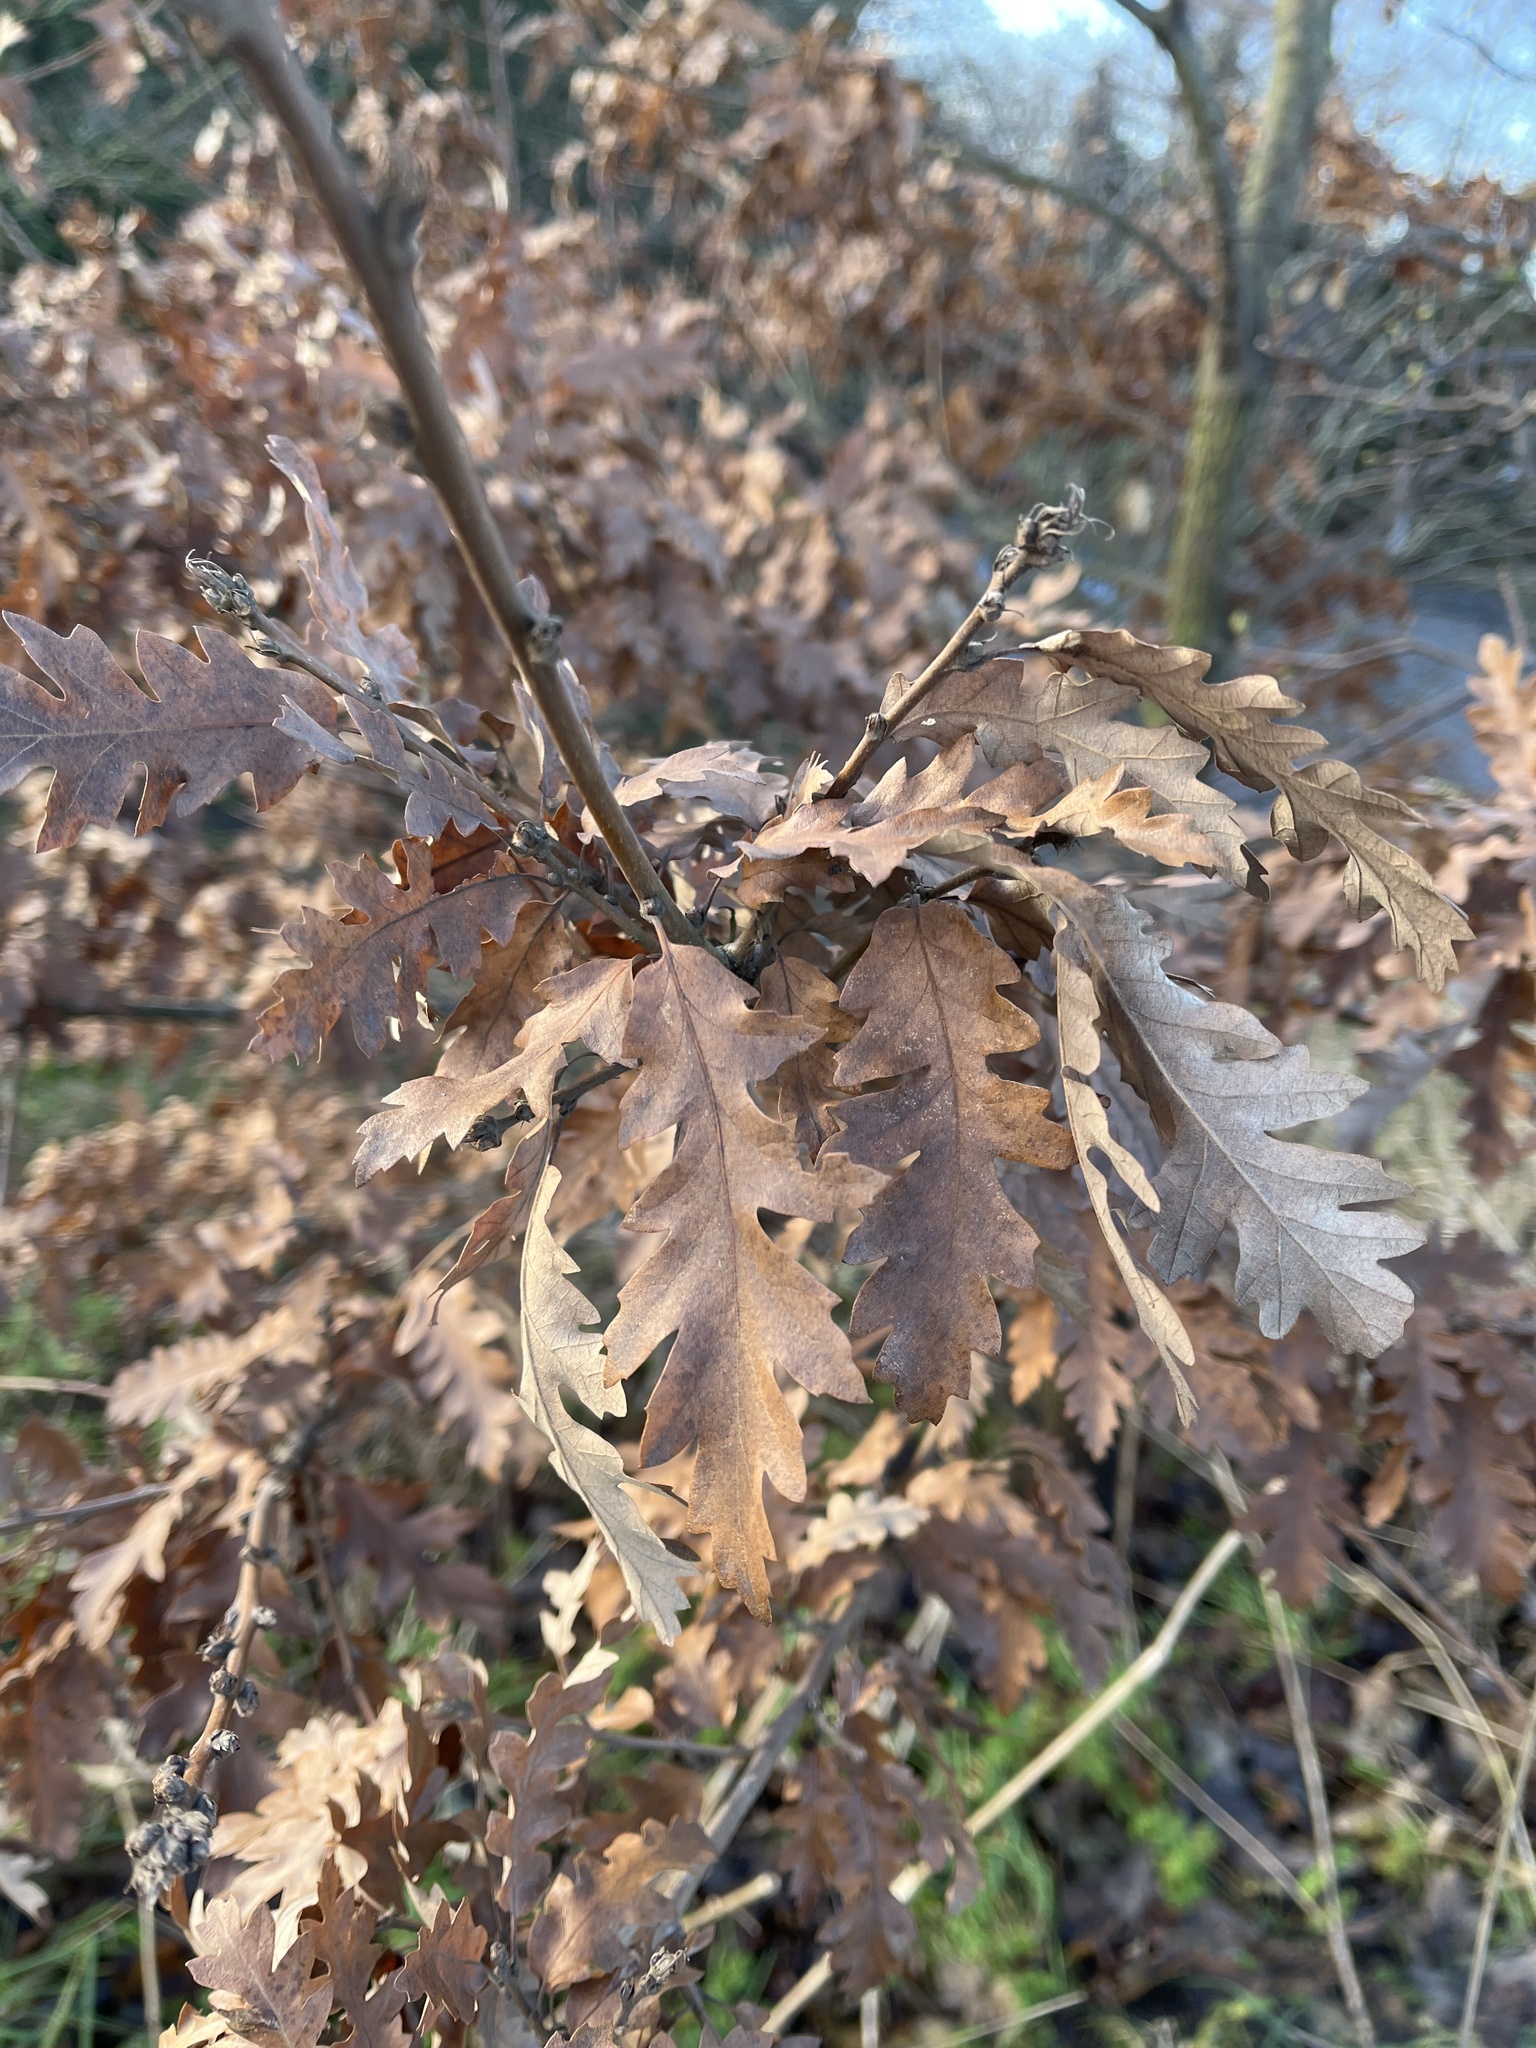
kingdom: Plantae
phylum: Tracheophyta
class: Magnoliopsida
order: Fagales
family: Fagaceae
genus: Quercus
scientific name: Quercus cerris
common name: Turkey oak
